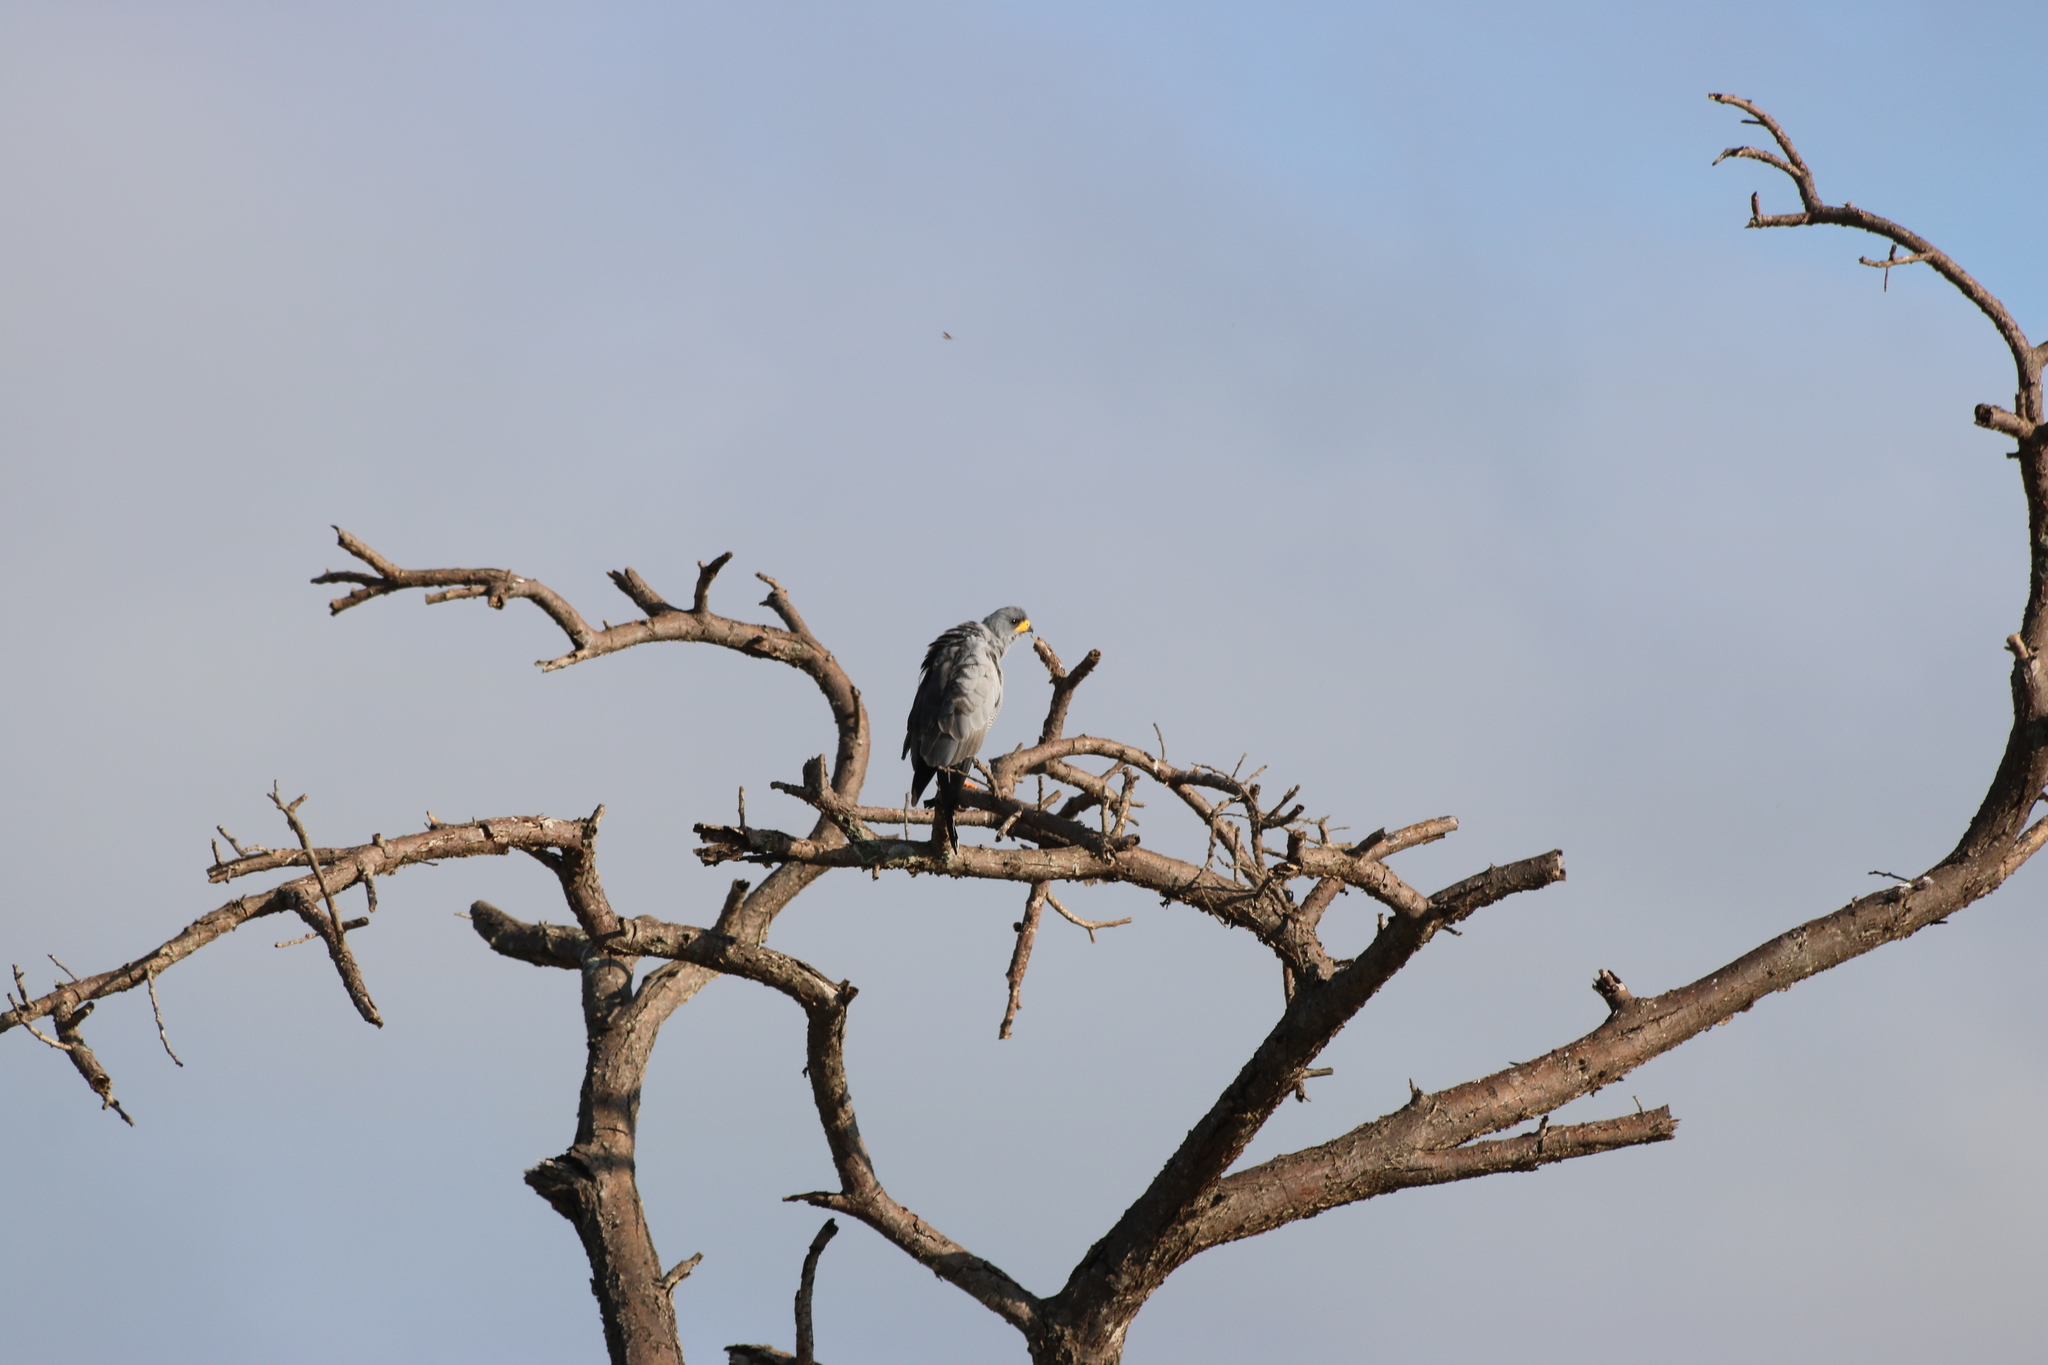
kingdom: Animalia
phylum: Chordata
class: Aves
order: Accipitriformes
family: Accipitridae
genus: Melierax
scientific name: Melierax poliopterus
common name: Eastern chanting goshawk
